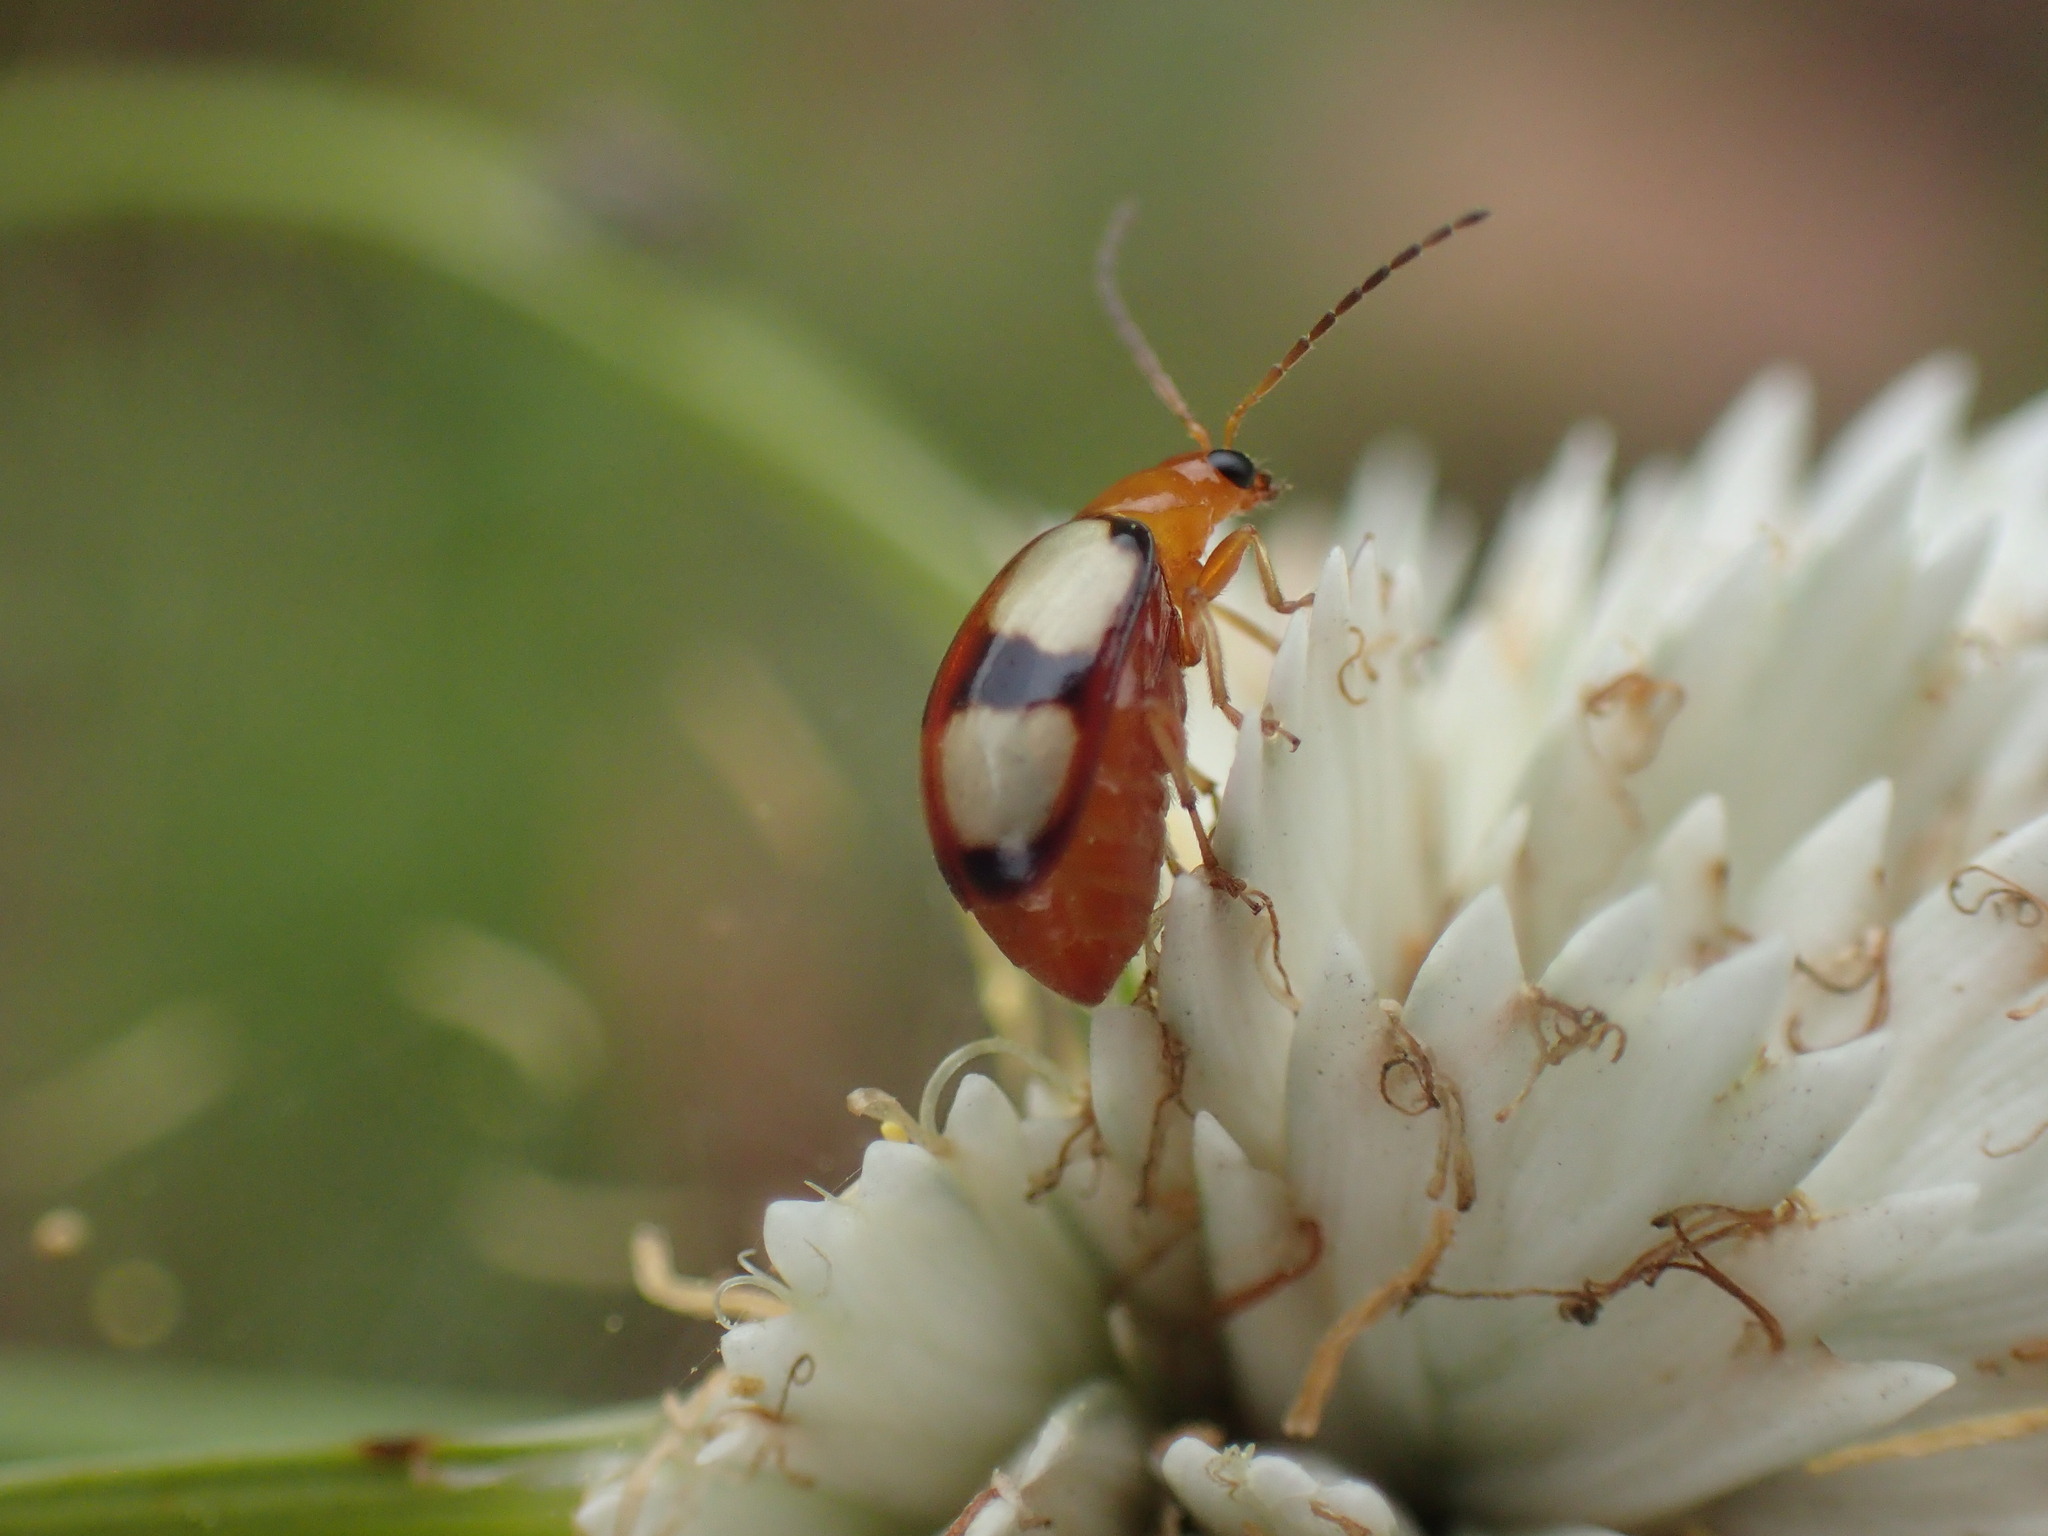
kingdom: Animalia
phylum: Arthropoda
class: Insecta
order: Coleoptera
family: Chrysomelidae
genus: Monolepta
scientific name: Monolepta
